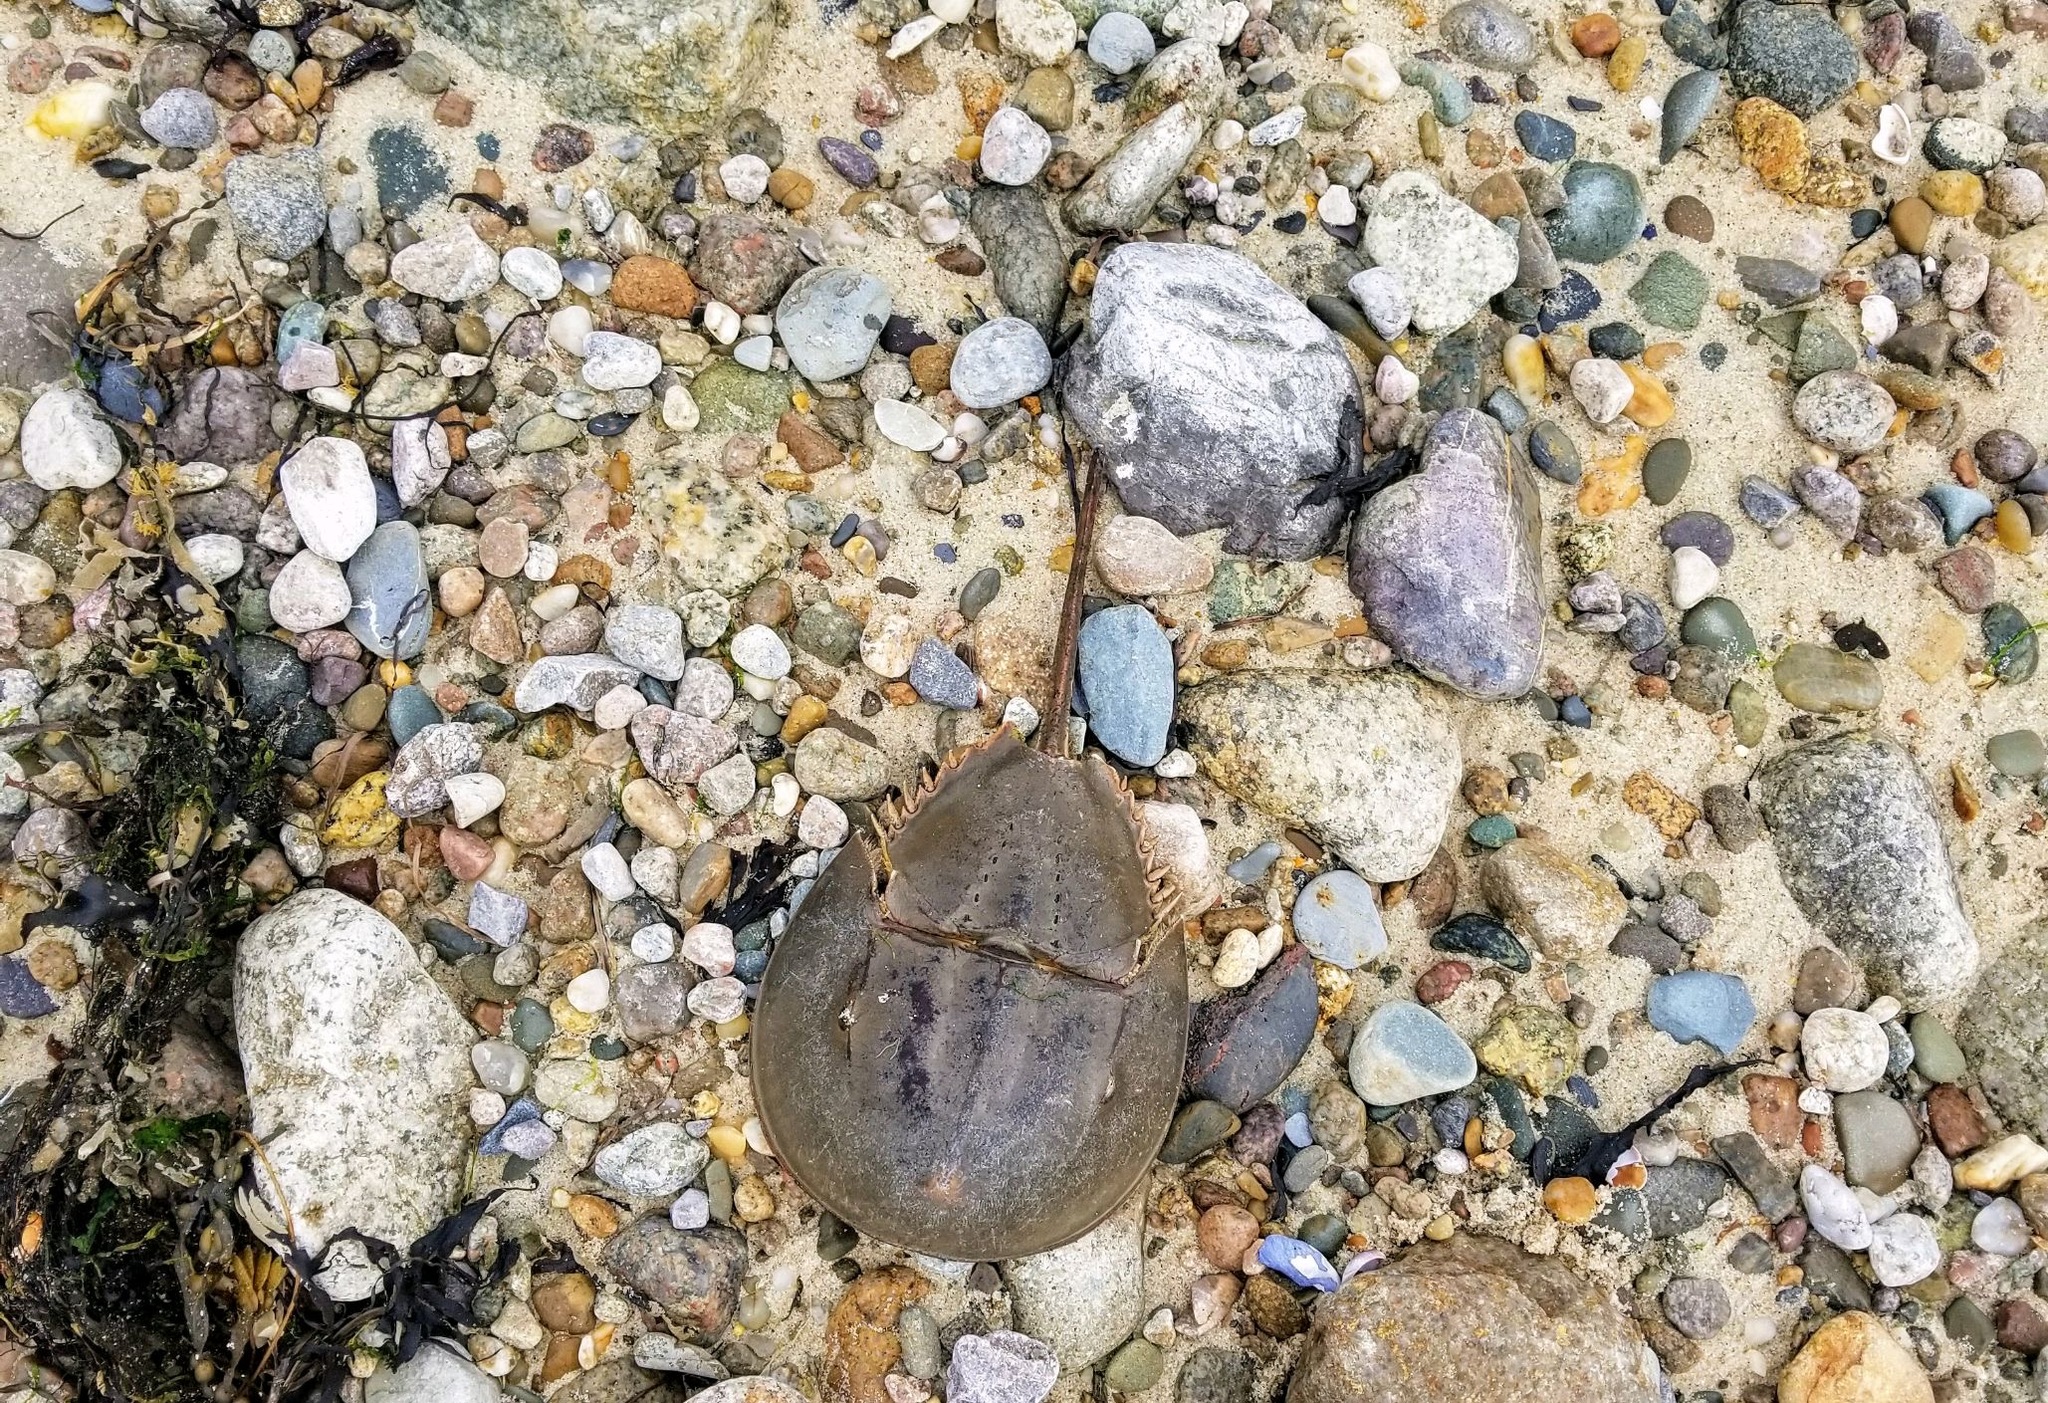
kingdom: Animalia
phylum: Arthropoda
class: Merostomata
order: Xiphosurida
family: Limulidae
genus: Limulus
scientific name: Limulus polyphemus
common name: Horseshoe crab
